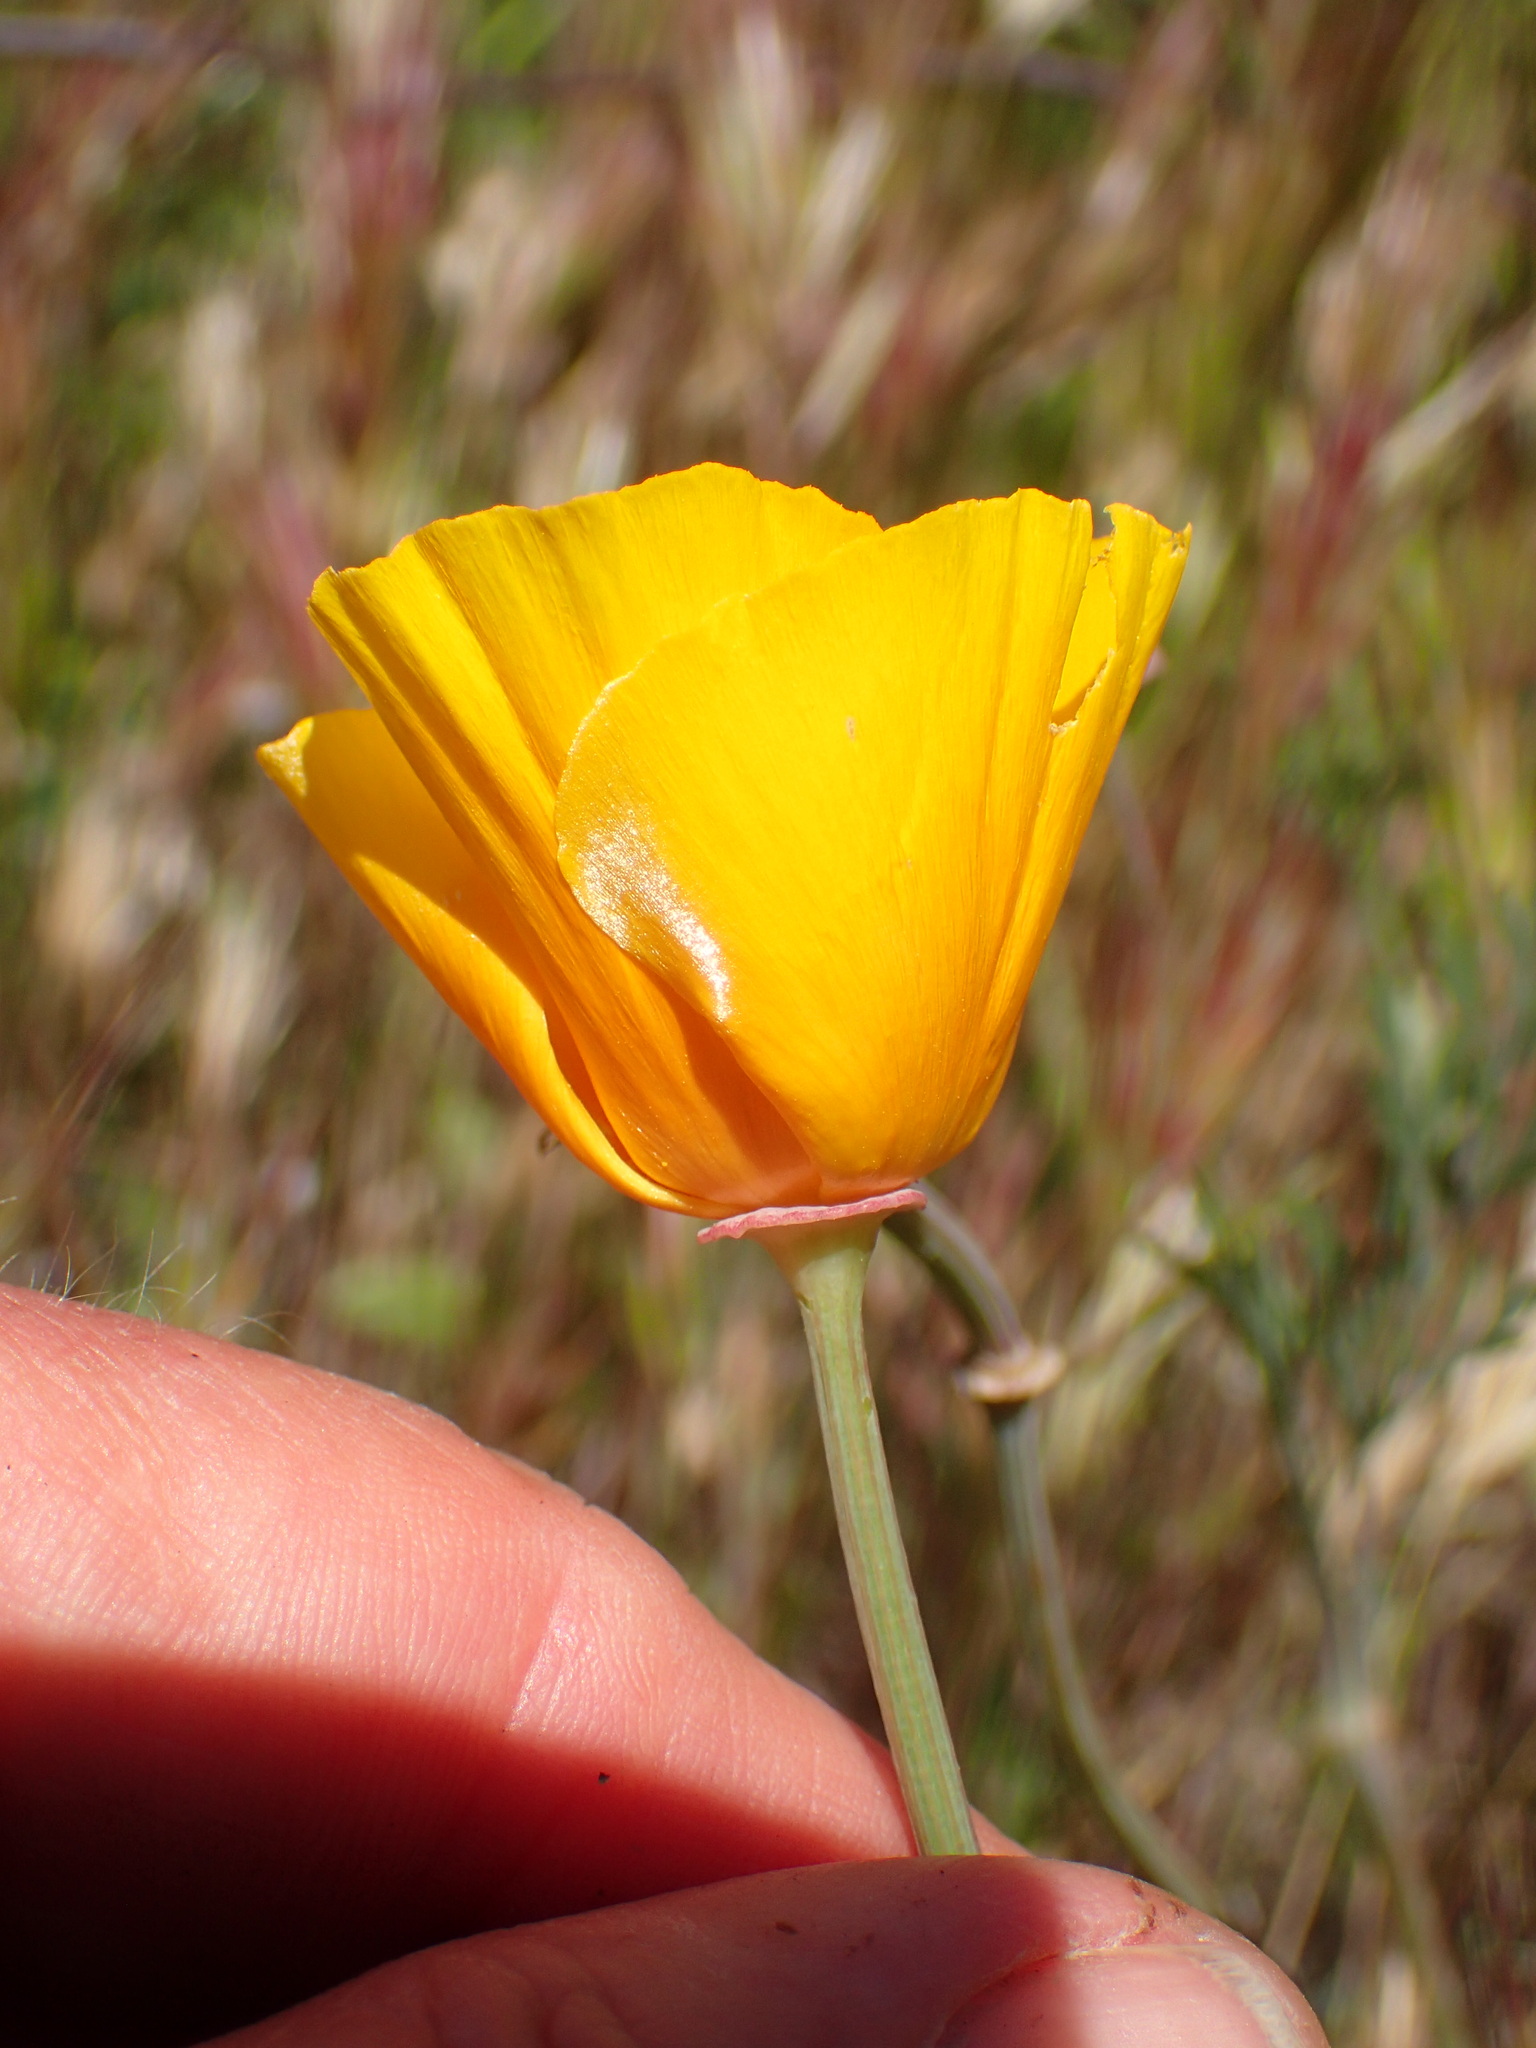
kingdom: Plantae
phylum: Tracheophyta
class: Magnoliopsida
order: Ranunculales
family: Papaveraceae
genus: Eschscholzia
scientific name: Eschscholzia californica
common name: California poppy
